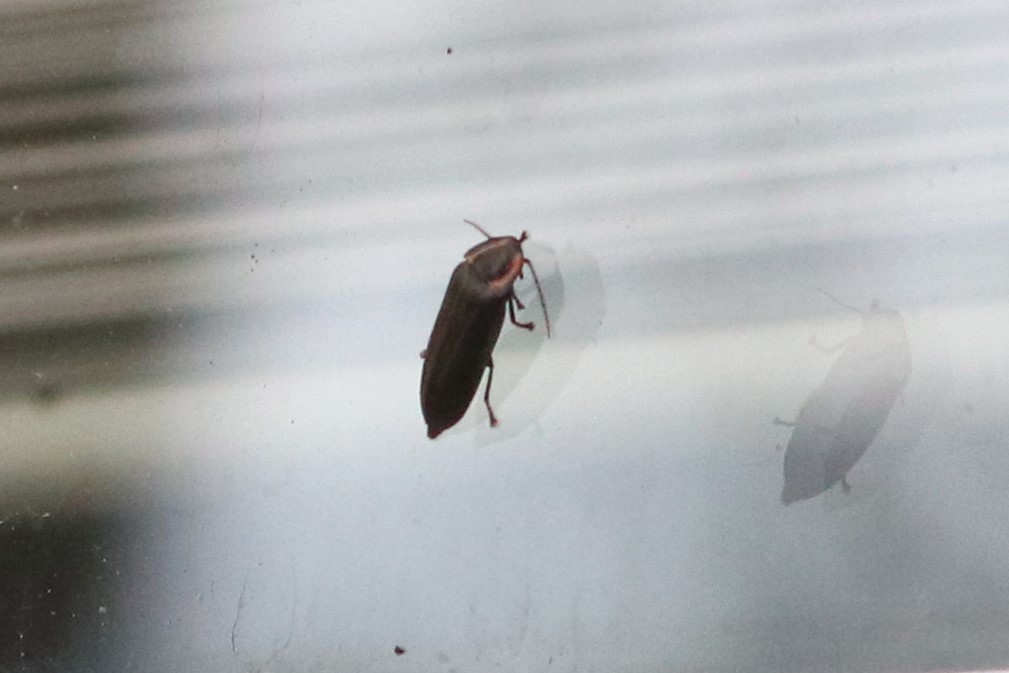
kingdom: Animalia
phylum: Arthropoda
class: Insecta
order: Coleoptera
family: Lampyridae
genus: Photinus
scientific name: Photinus corrusca
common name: Winter firefly
